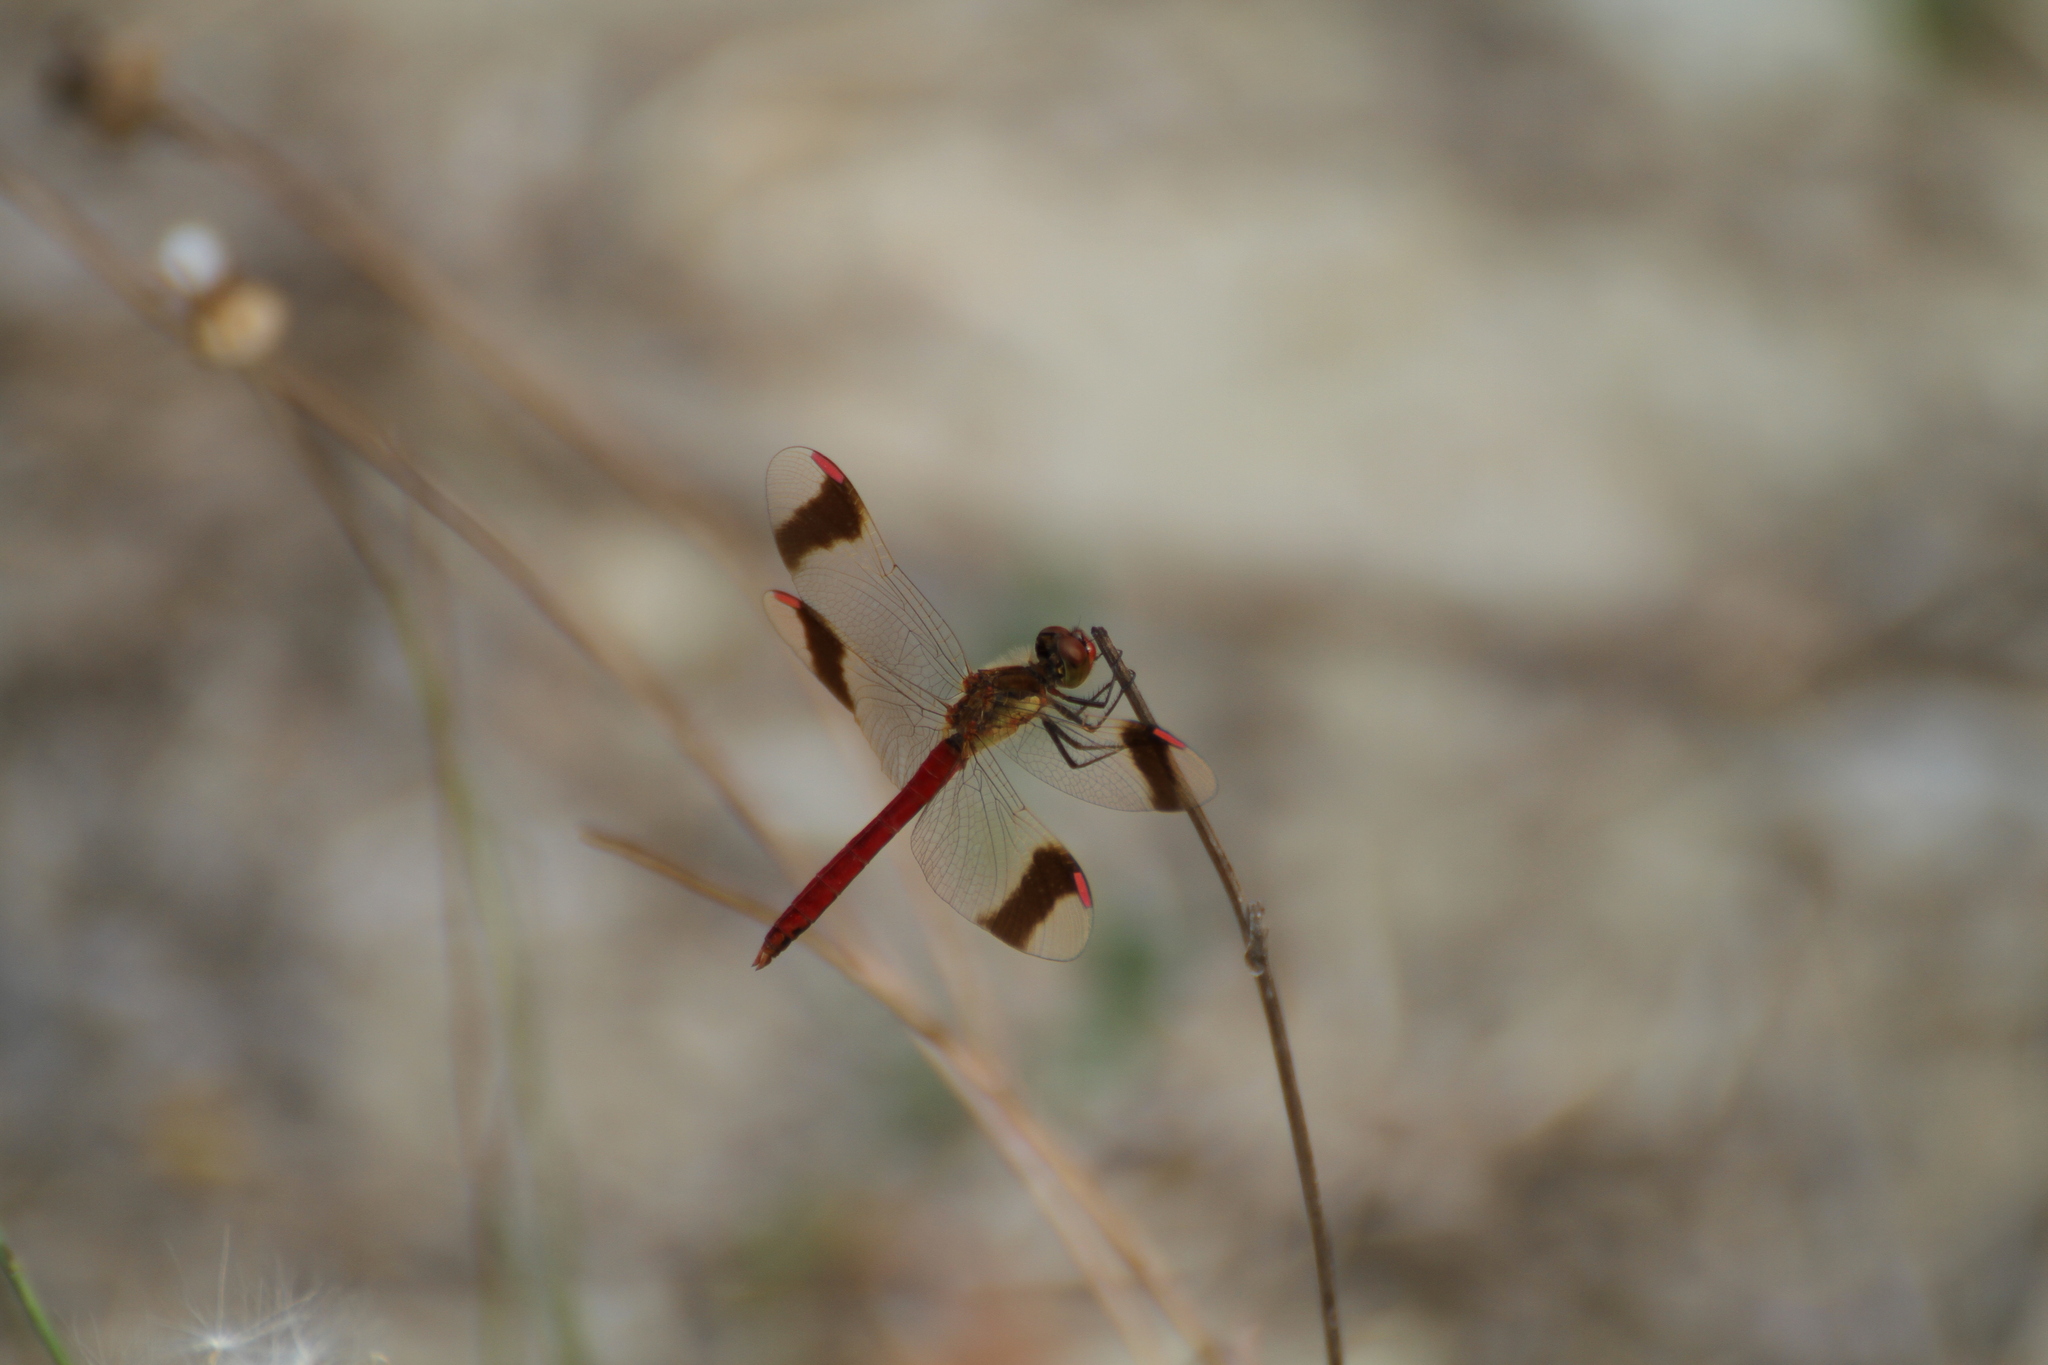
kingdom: Animalia
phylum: Arthropoda
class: Insecta
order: Odonata
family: Libellulidae
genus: Sympetrum
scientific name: Sympetrum pedemontanum
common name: Banded darter
